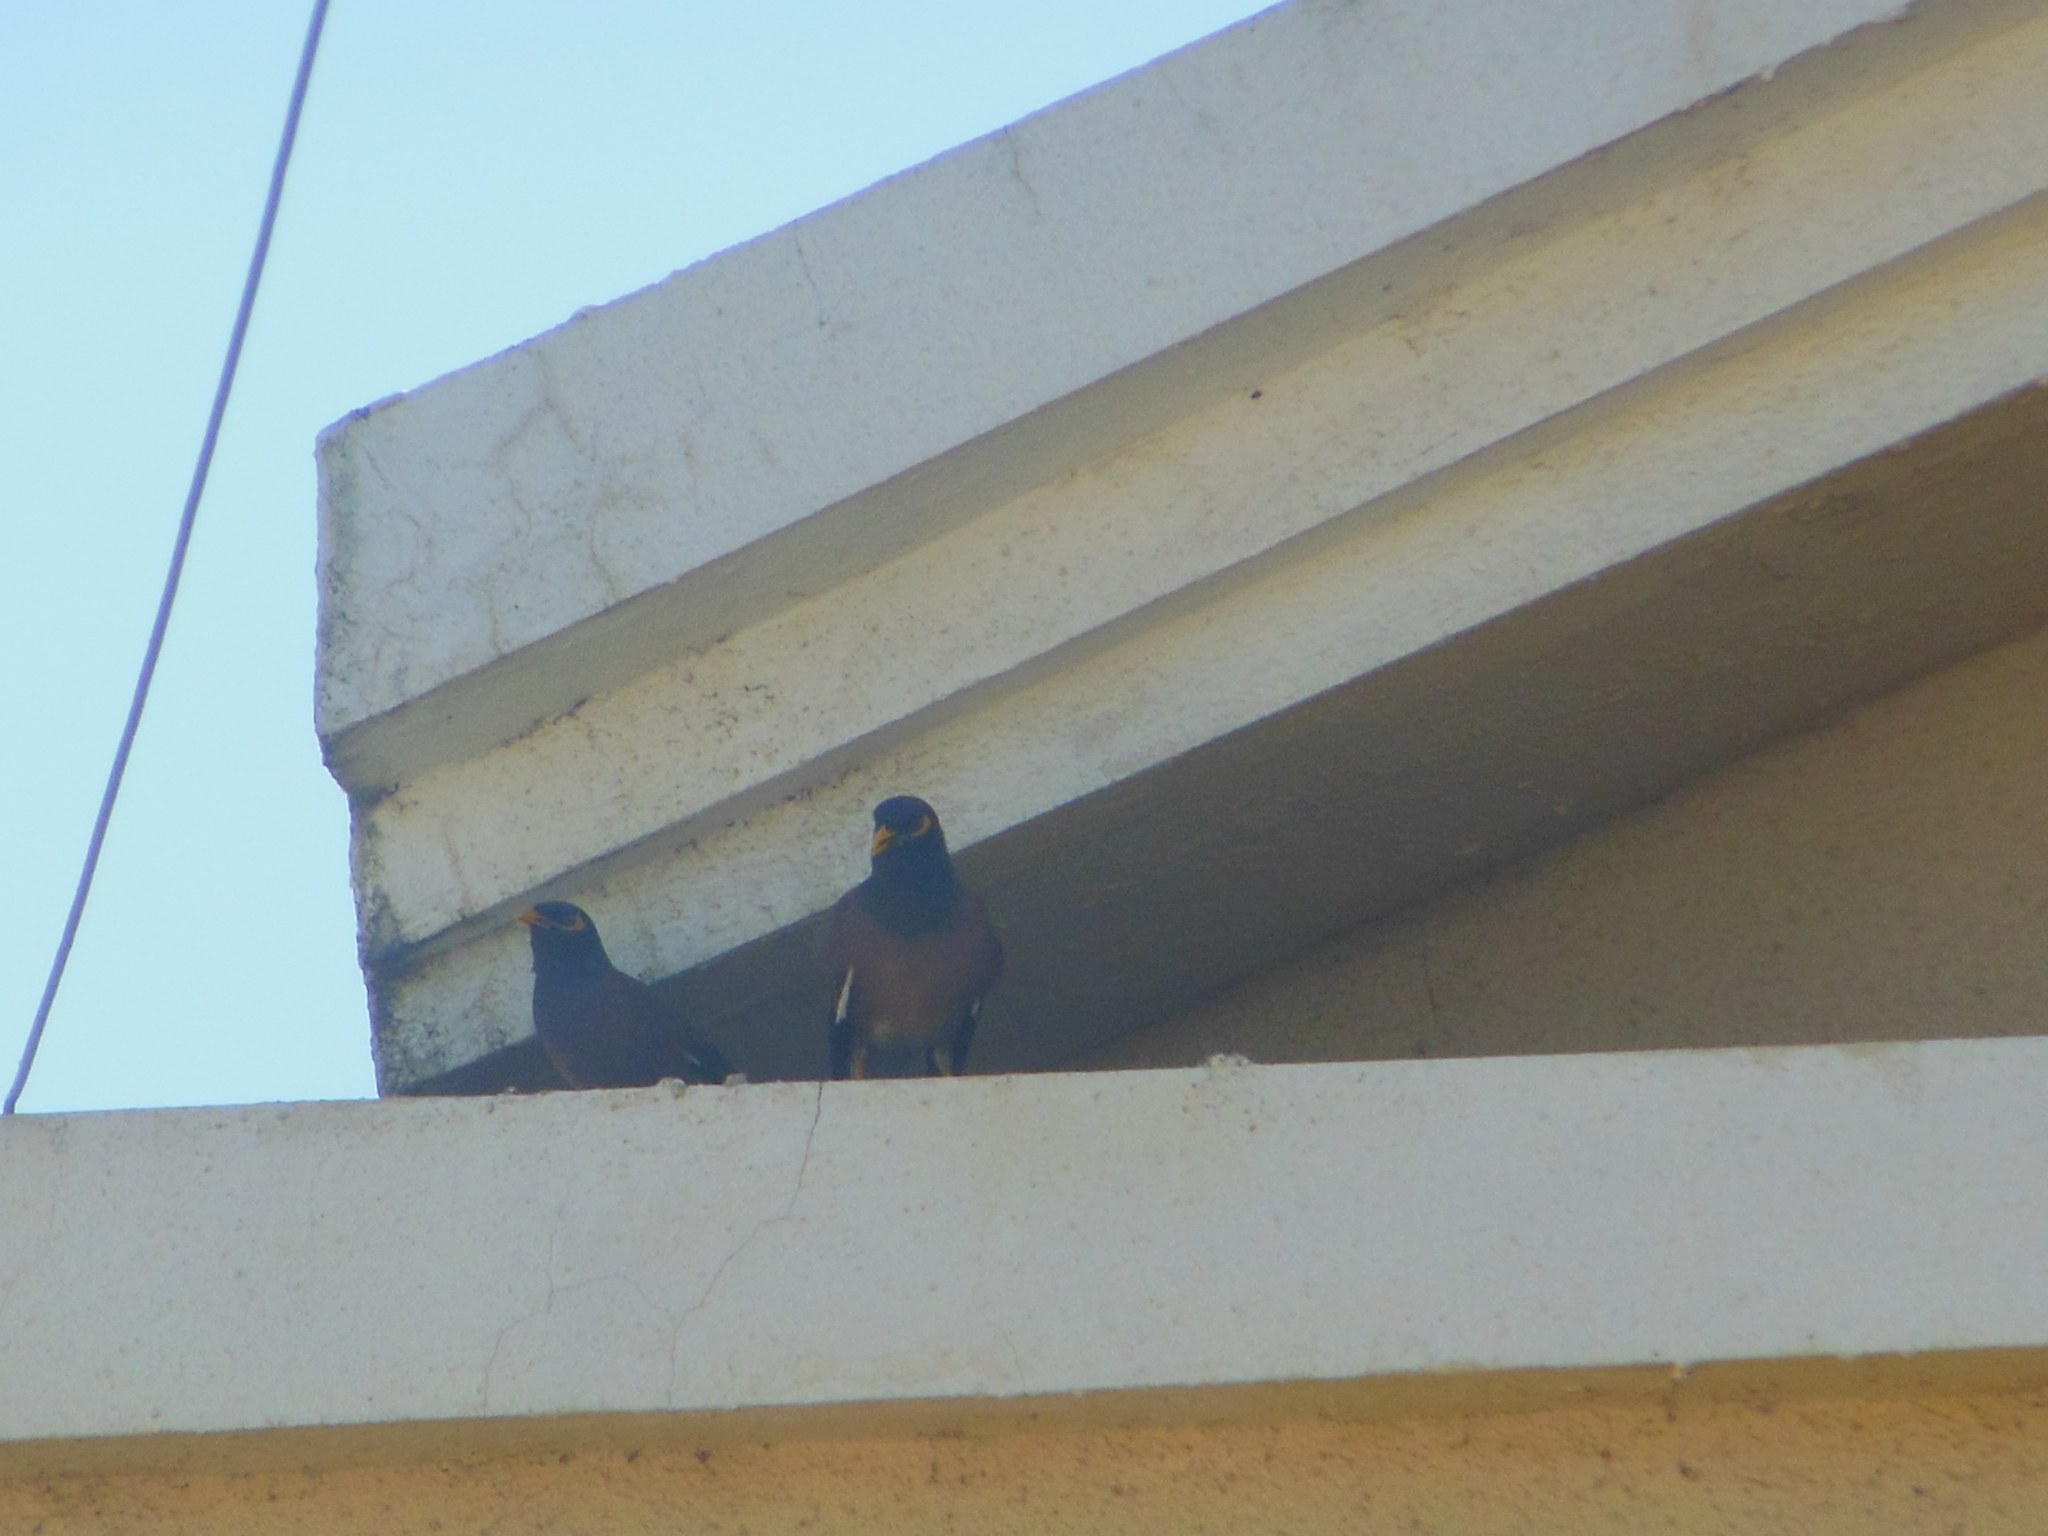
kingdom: Animalia
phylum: Chordata
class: Aves
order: Passeriformes
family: Sturnidae
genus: Acridotheres
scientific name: Acridotheres tristis
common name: Common myna
